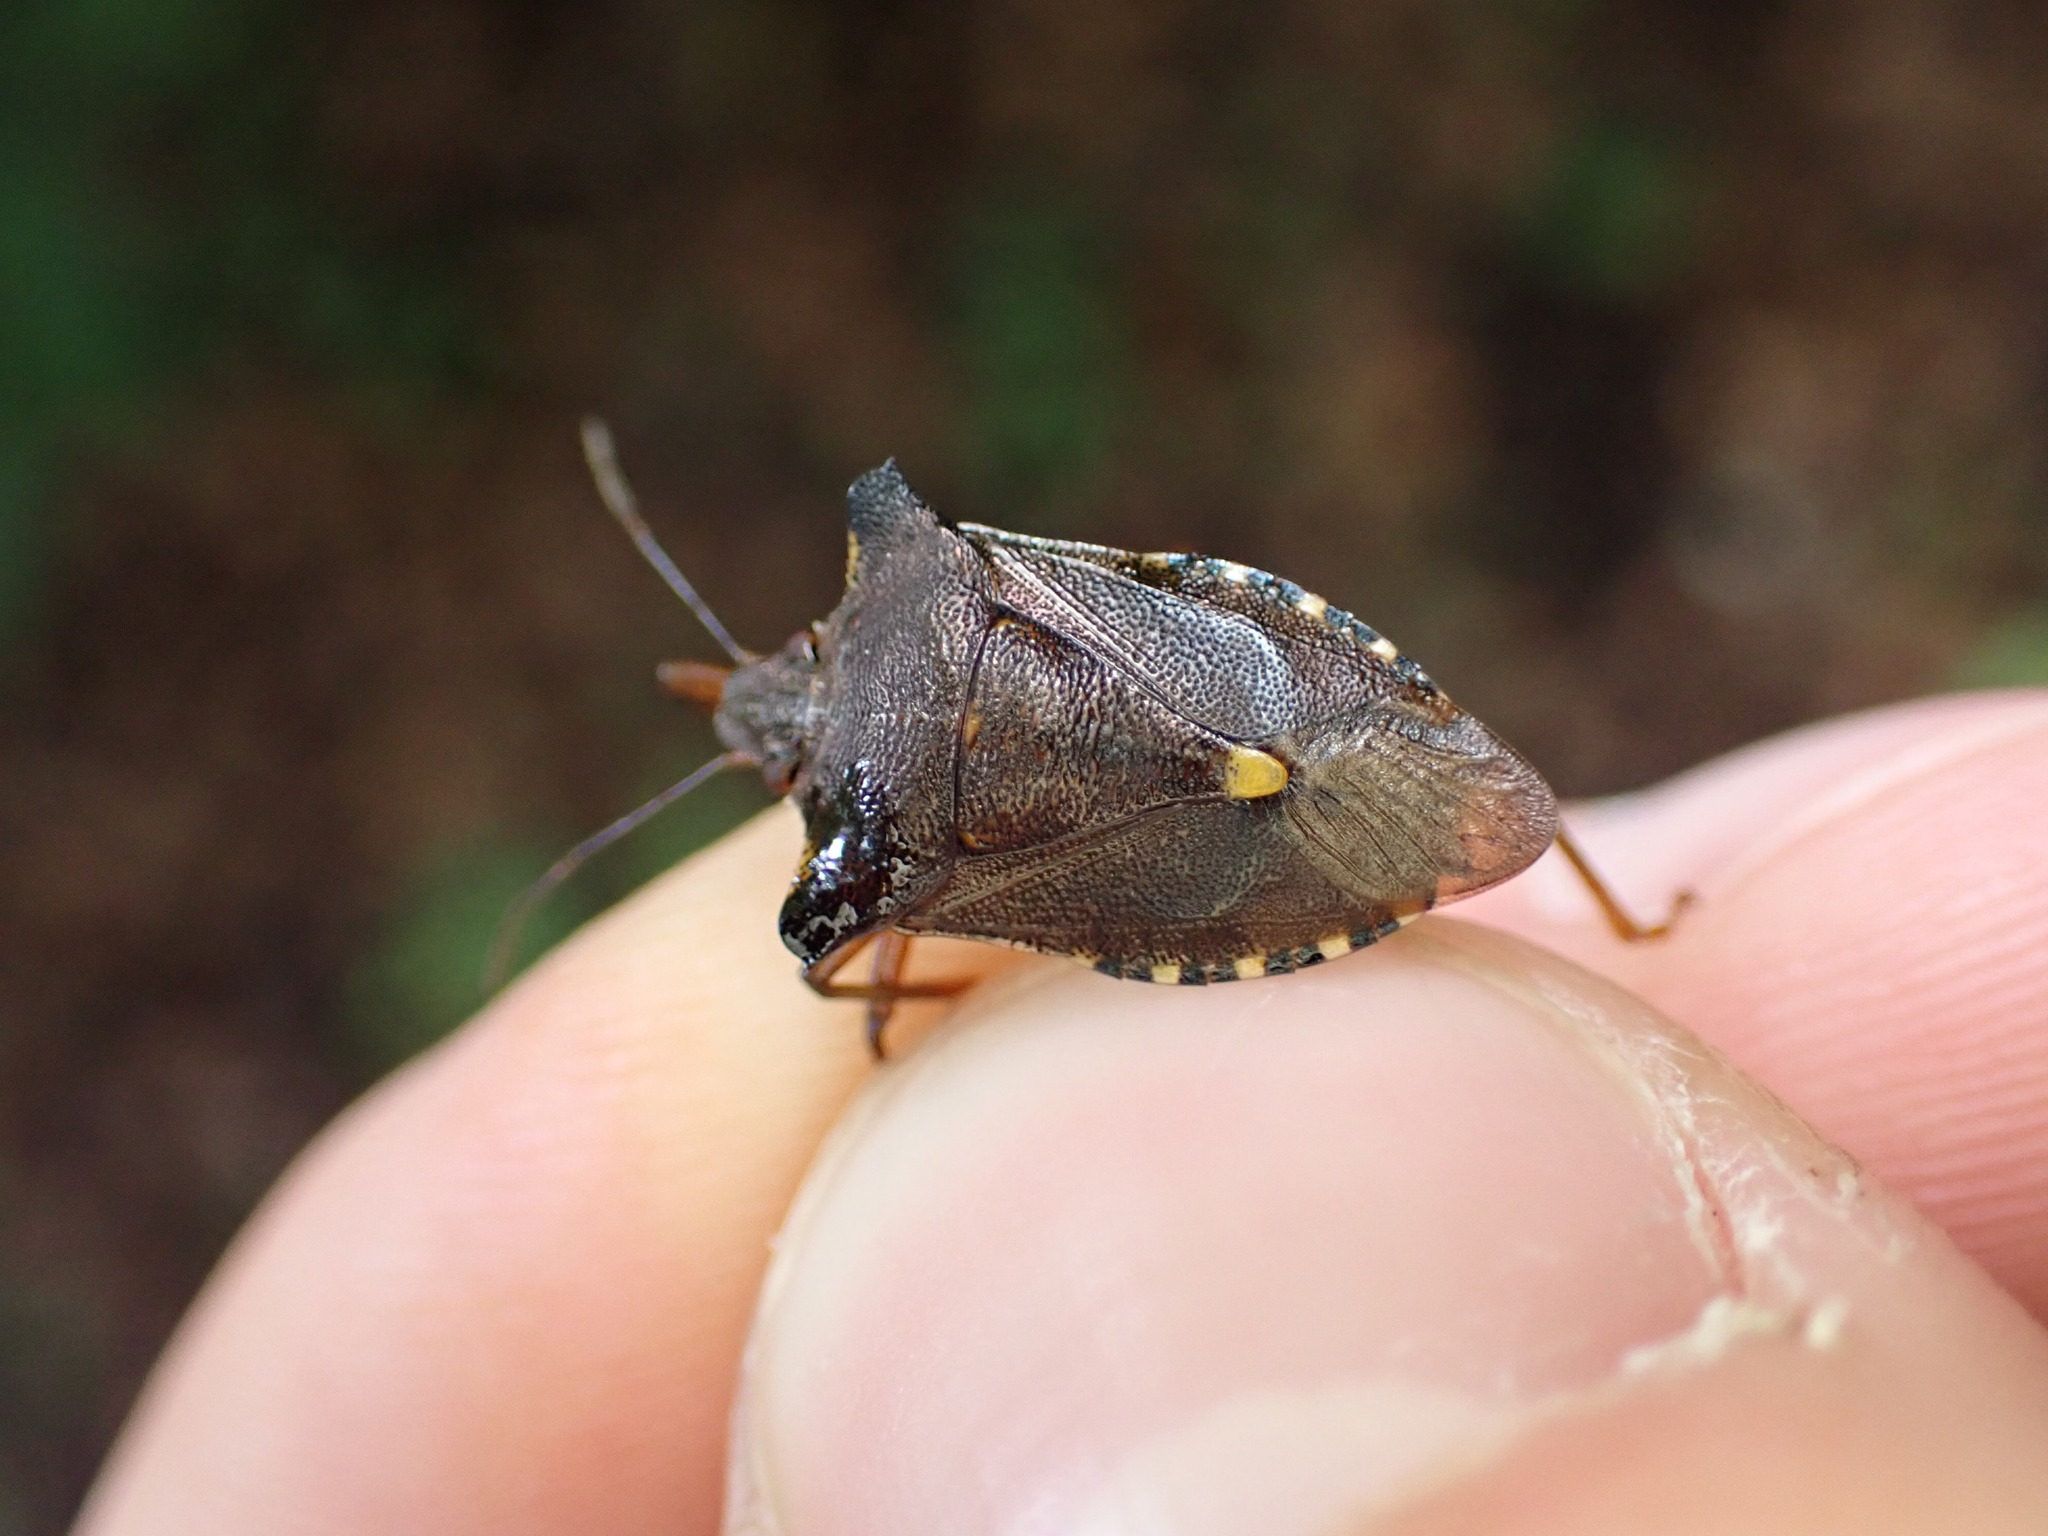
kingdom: Animalia
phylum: Arthropoda
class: Insecta
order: Hemiptera
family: Pentatomidae
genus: Pentatoma
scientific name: Pentatoma rufipes
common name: Forest bug
